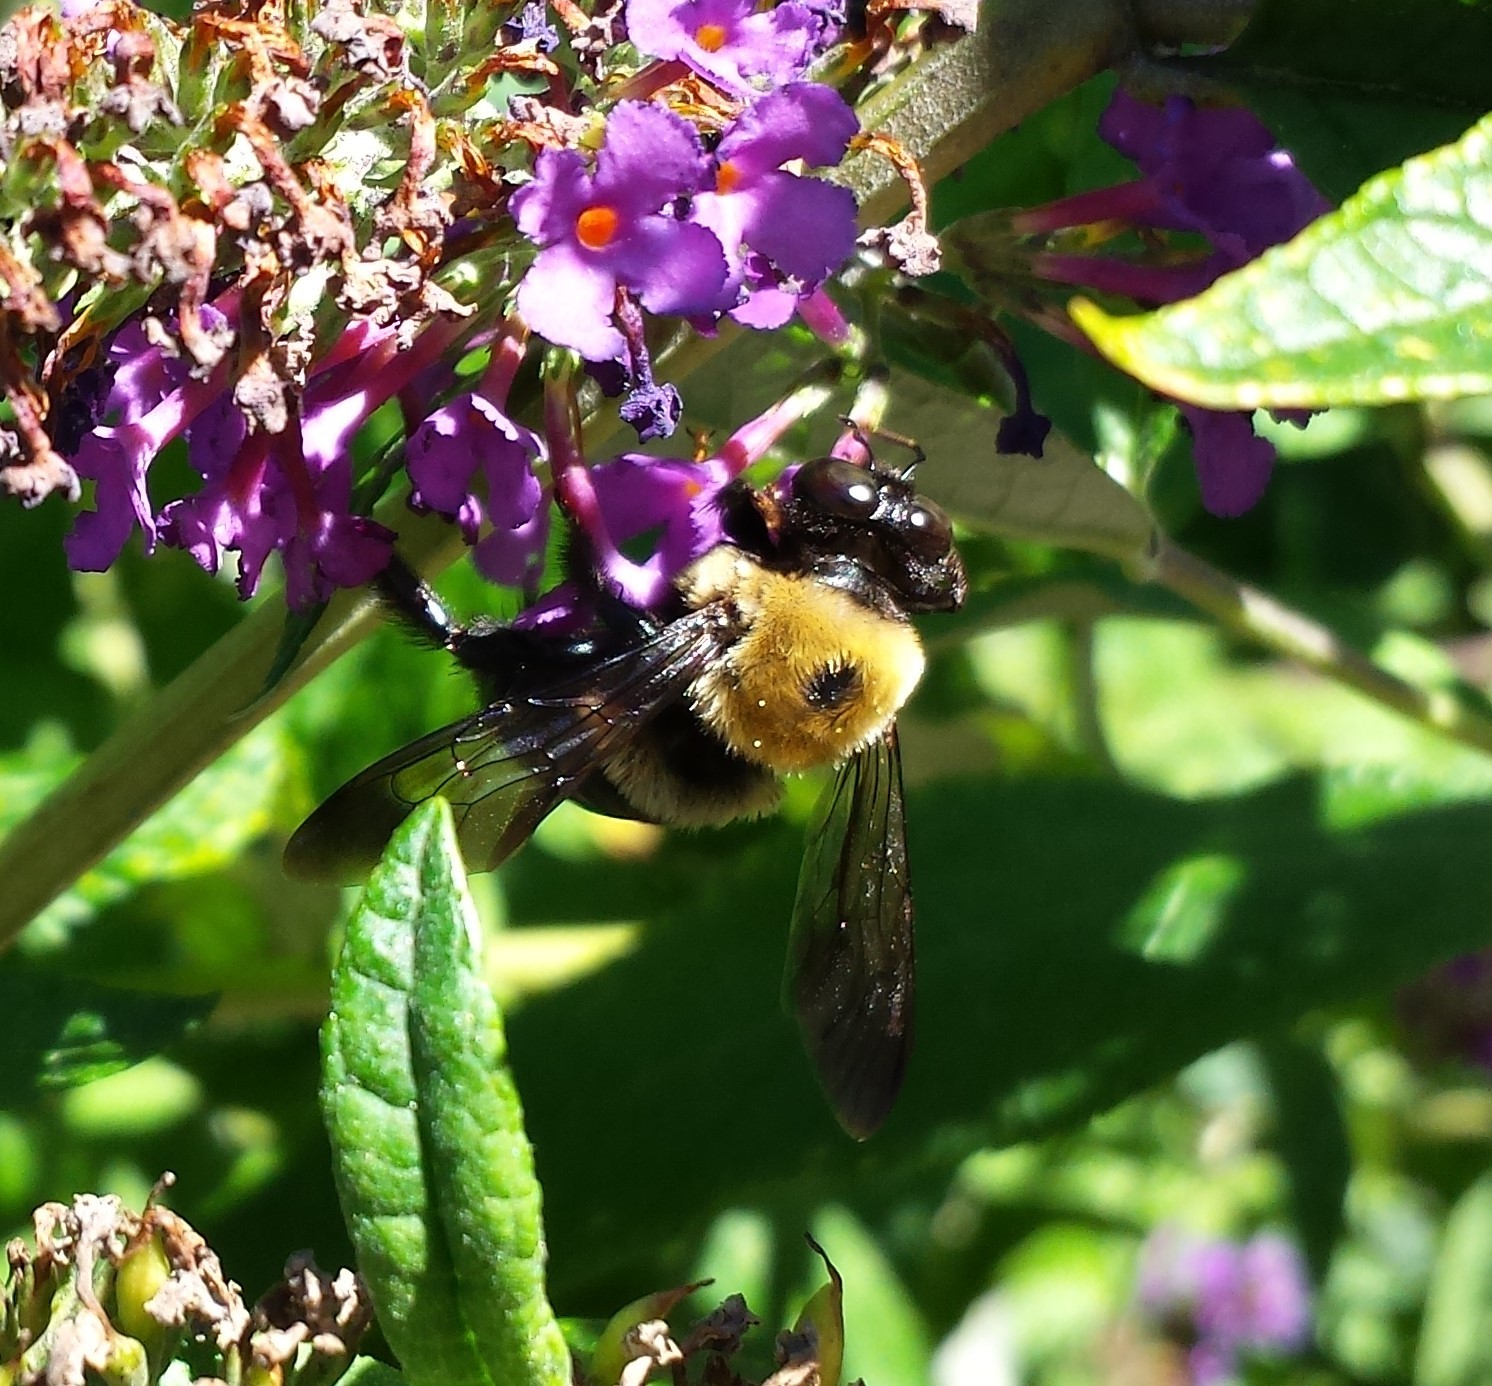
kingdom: Animalia
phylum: Arthropoda
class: Insecta
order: Hymenoptera
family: Apidae
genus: Xylocopa
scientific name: Xylocopa virginica
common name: Carpenter bee
